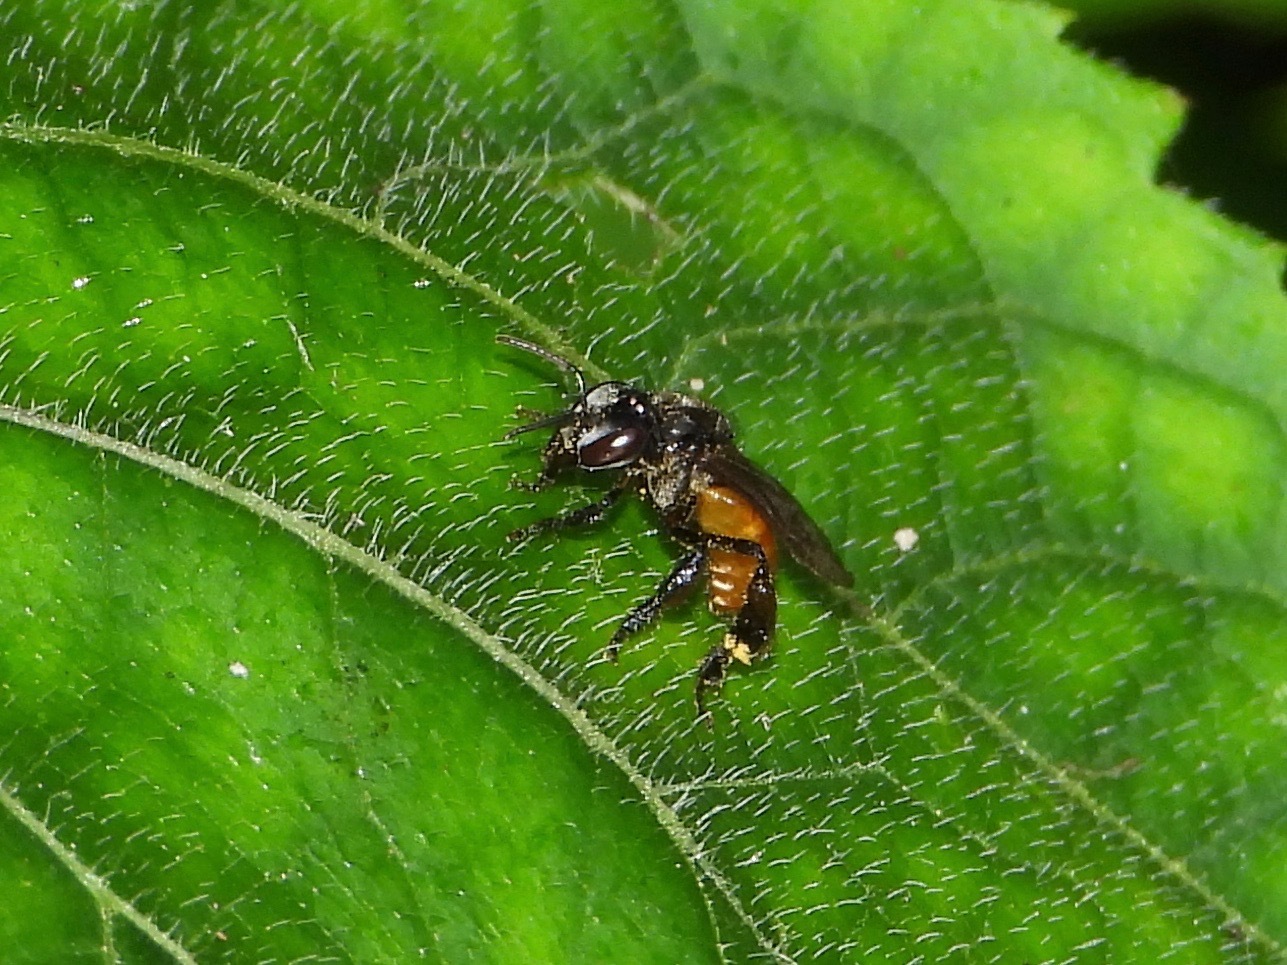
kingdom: Animalia
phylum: Arthropoda
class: Insecta
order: Hymenoptera
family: Apidae
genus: Trigona
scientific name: Trigona fulviventris
